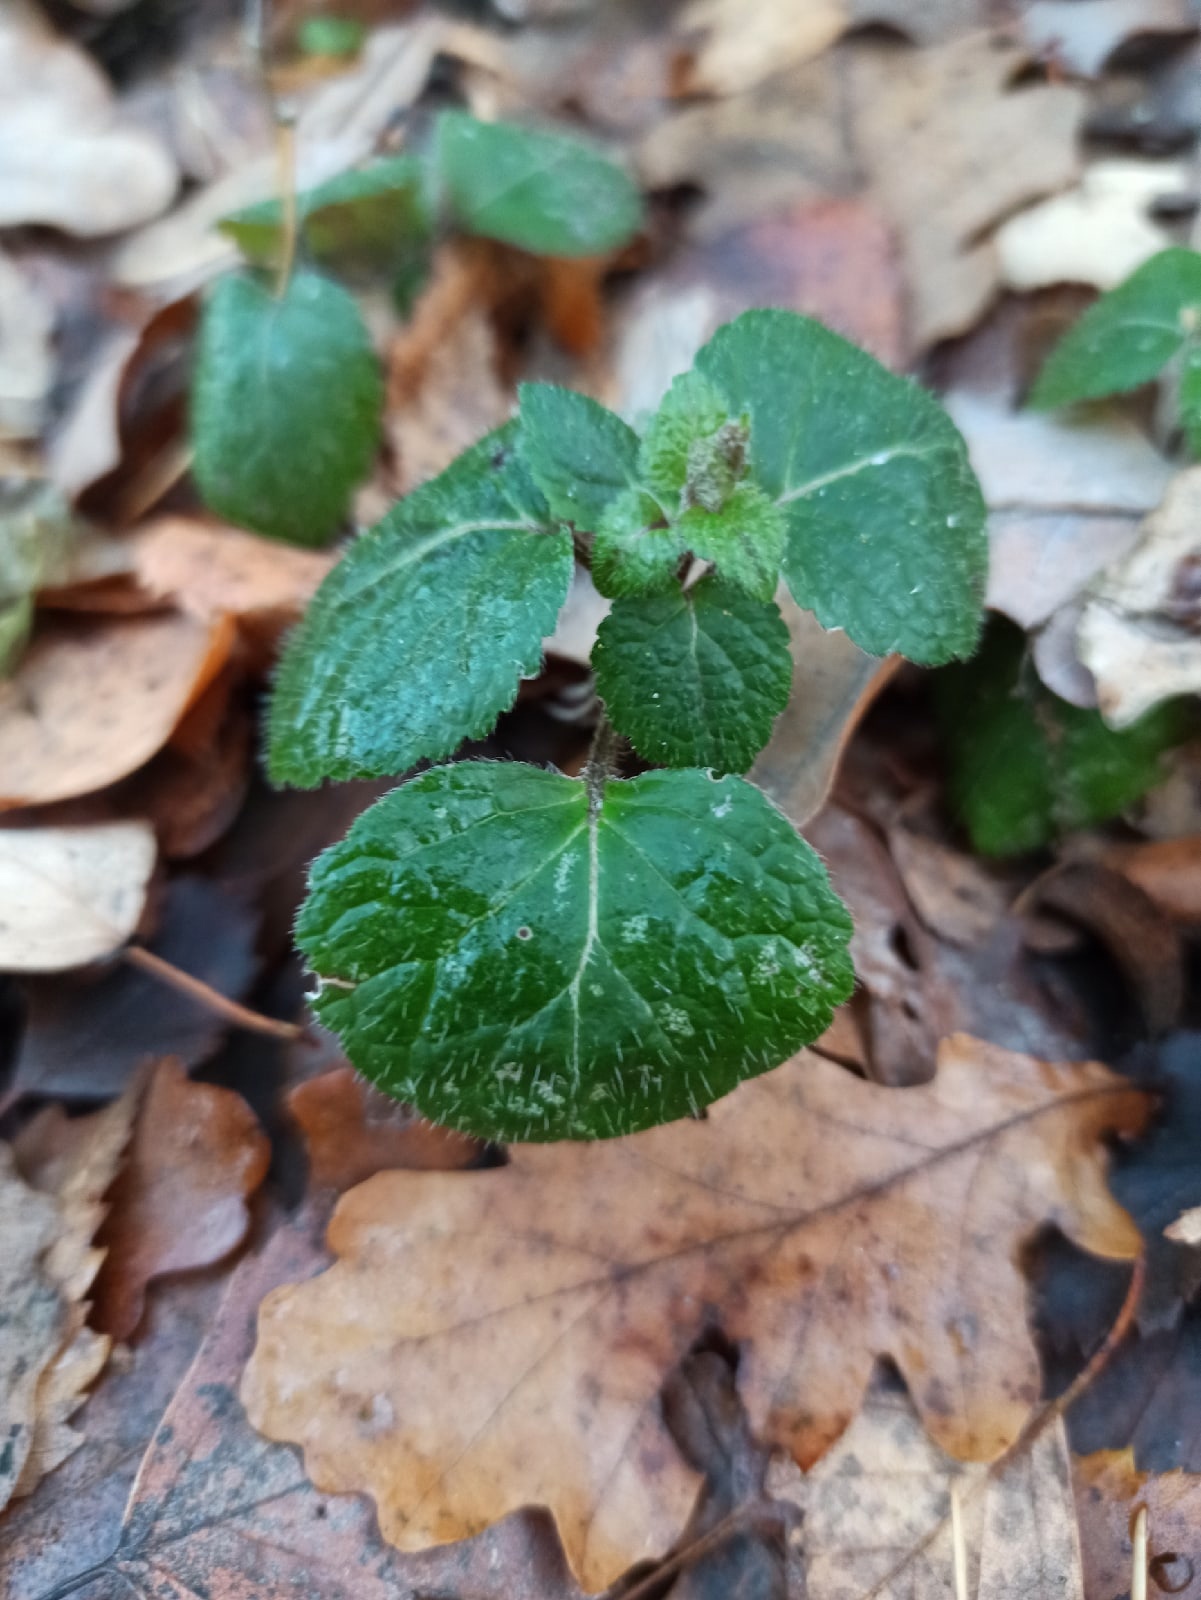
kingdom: Plantae
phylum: Tracheophyta
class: Magnoliopsida
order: Lamiales
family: Lamiaceae
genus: Lamium
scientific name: Lamium galeobdolon
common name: Yellow archangel
